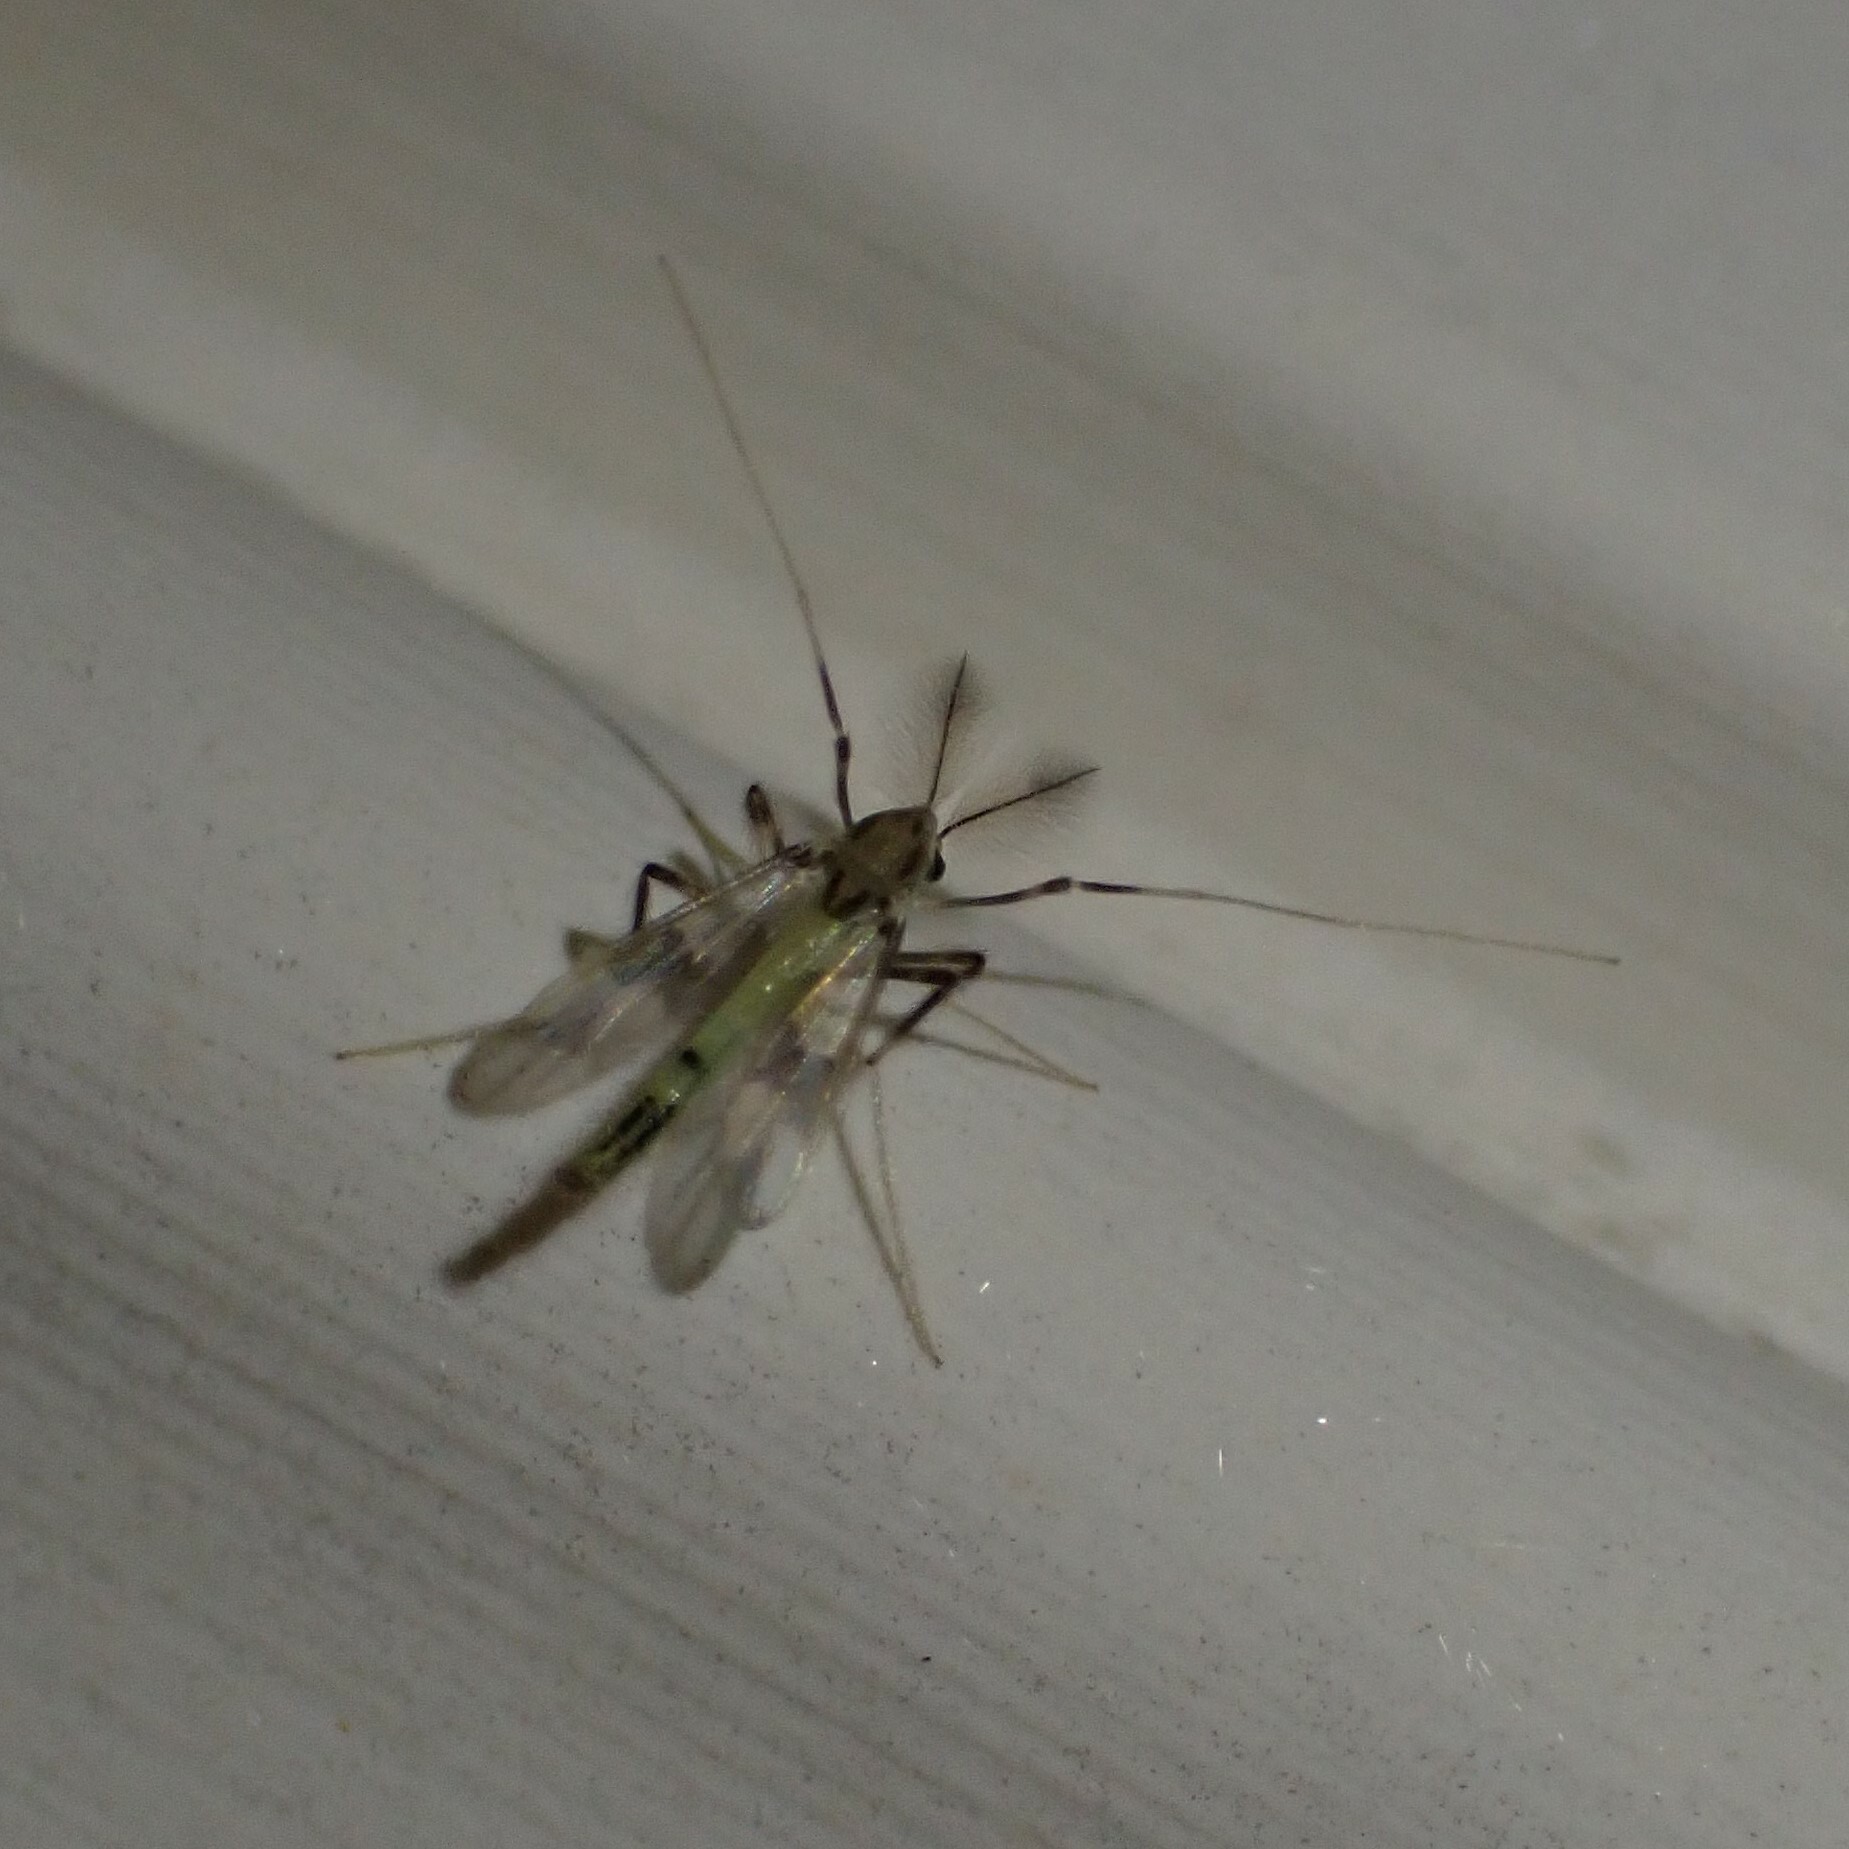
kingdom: Animalia
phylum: Arthropoda
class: Insecta
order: Diptera
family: Chironomidae
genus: Stenochironomus
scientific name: Stenochironomus poecilopterus
